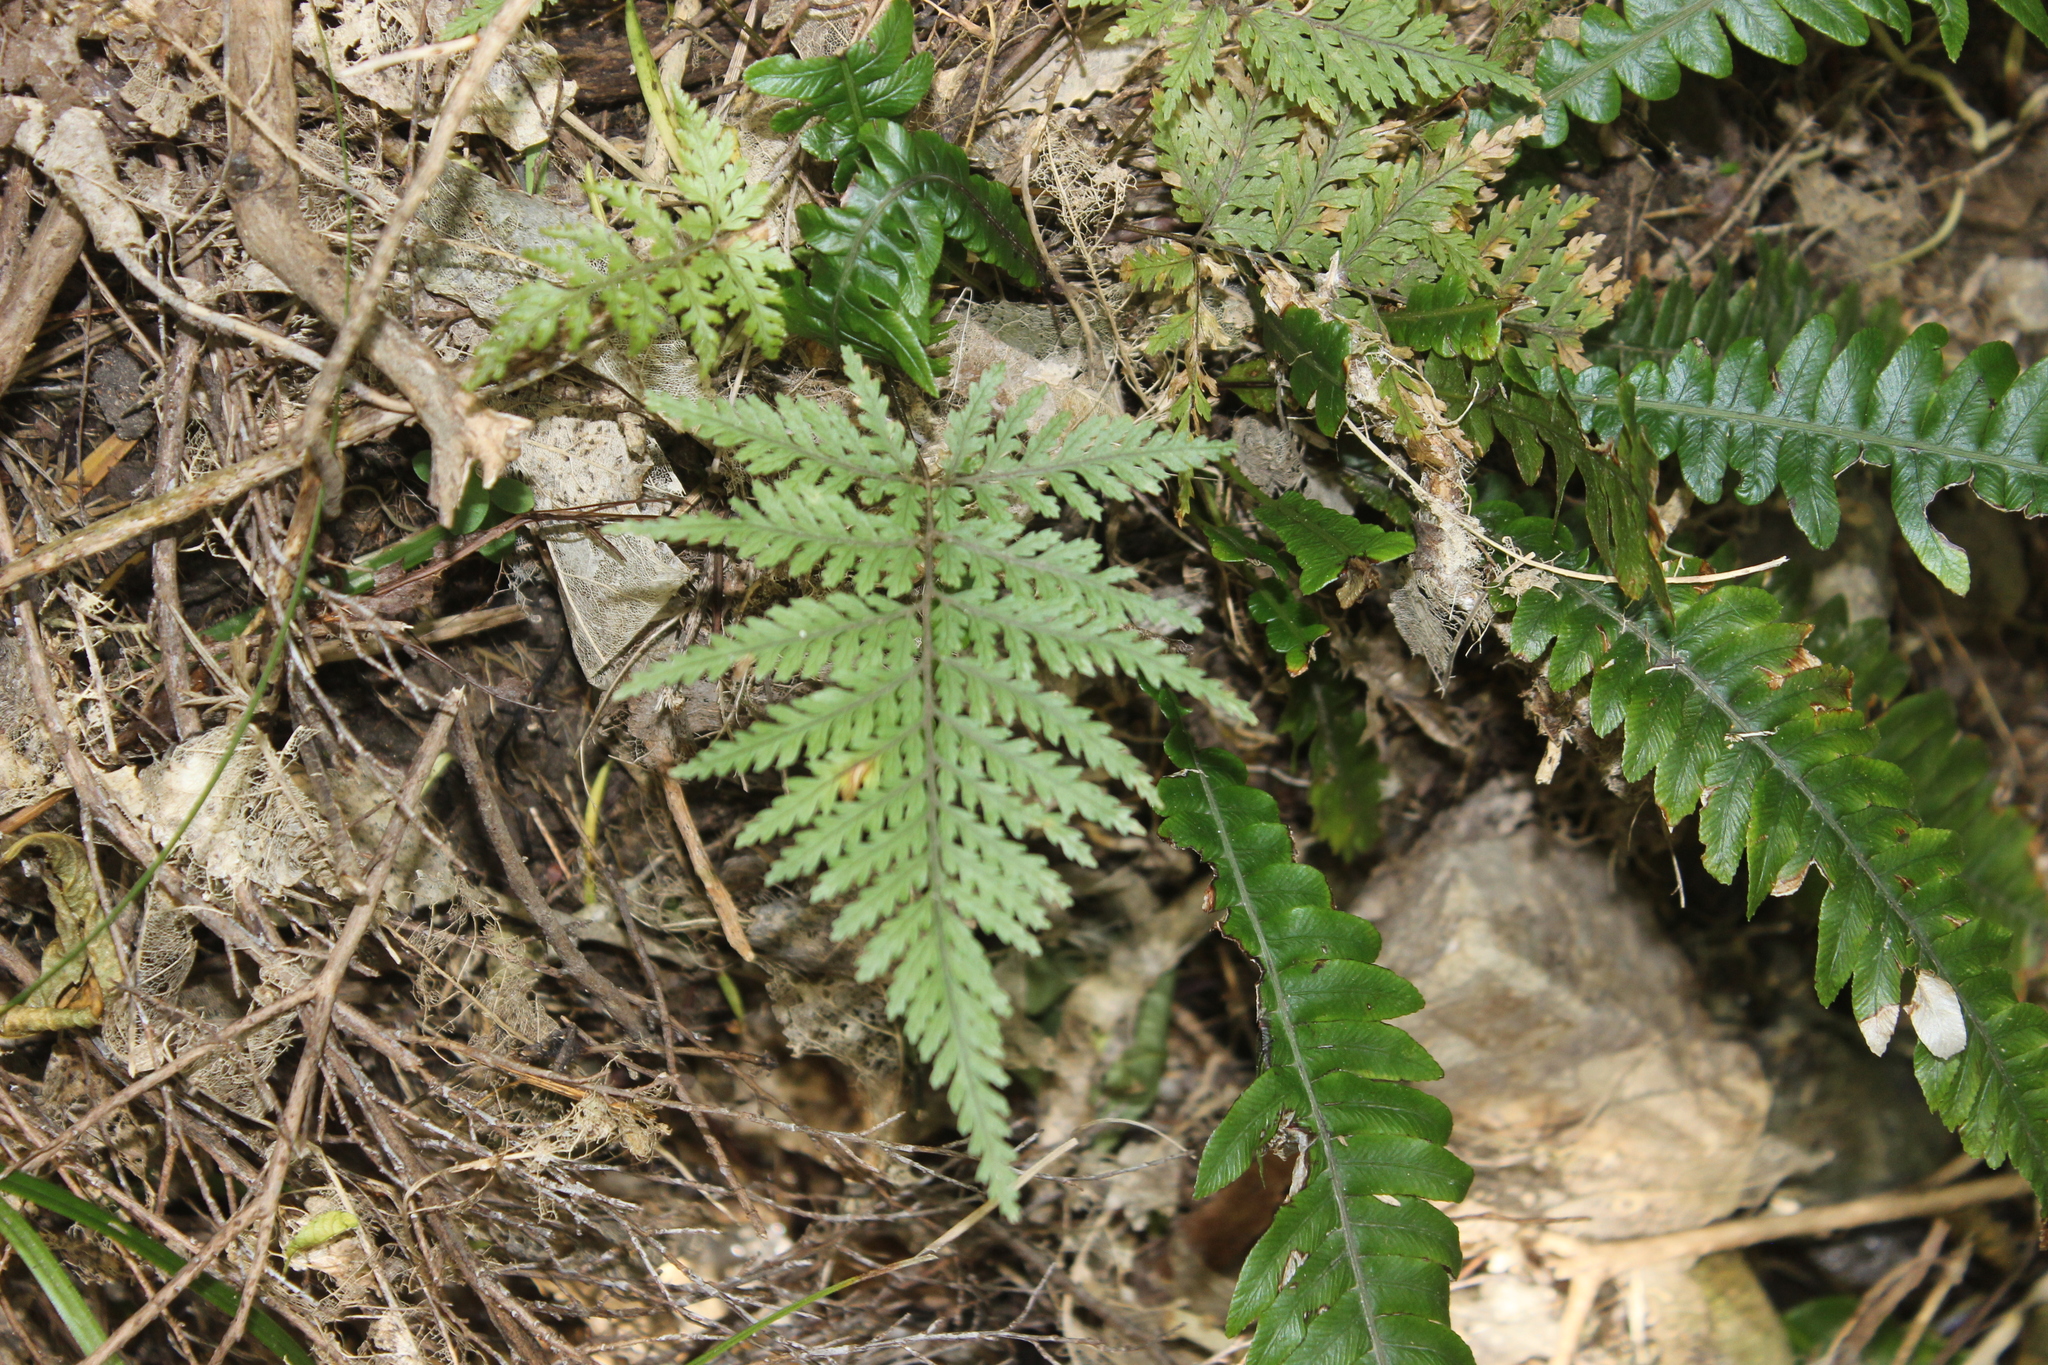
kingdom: Plantae
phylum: Tracheophyta
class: Polypodiopsida
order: Polypodiales
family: Dryopteridaceae
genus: Parapolystichum
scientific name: Parapolystichum glabellum
